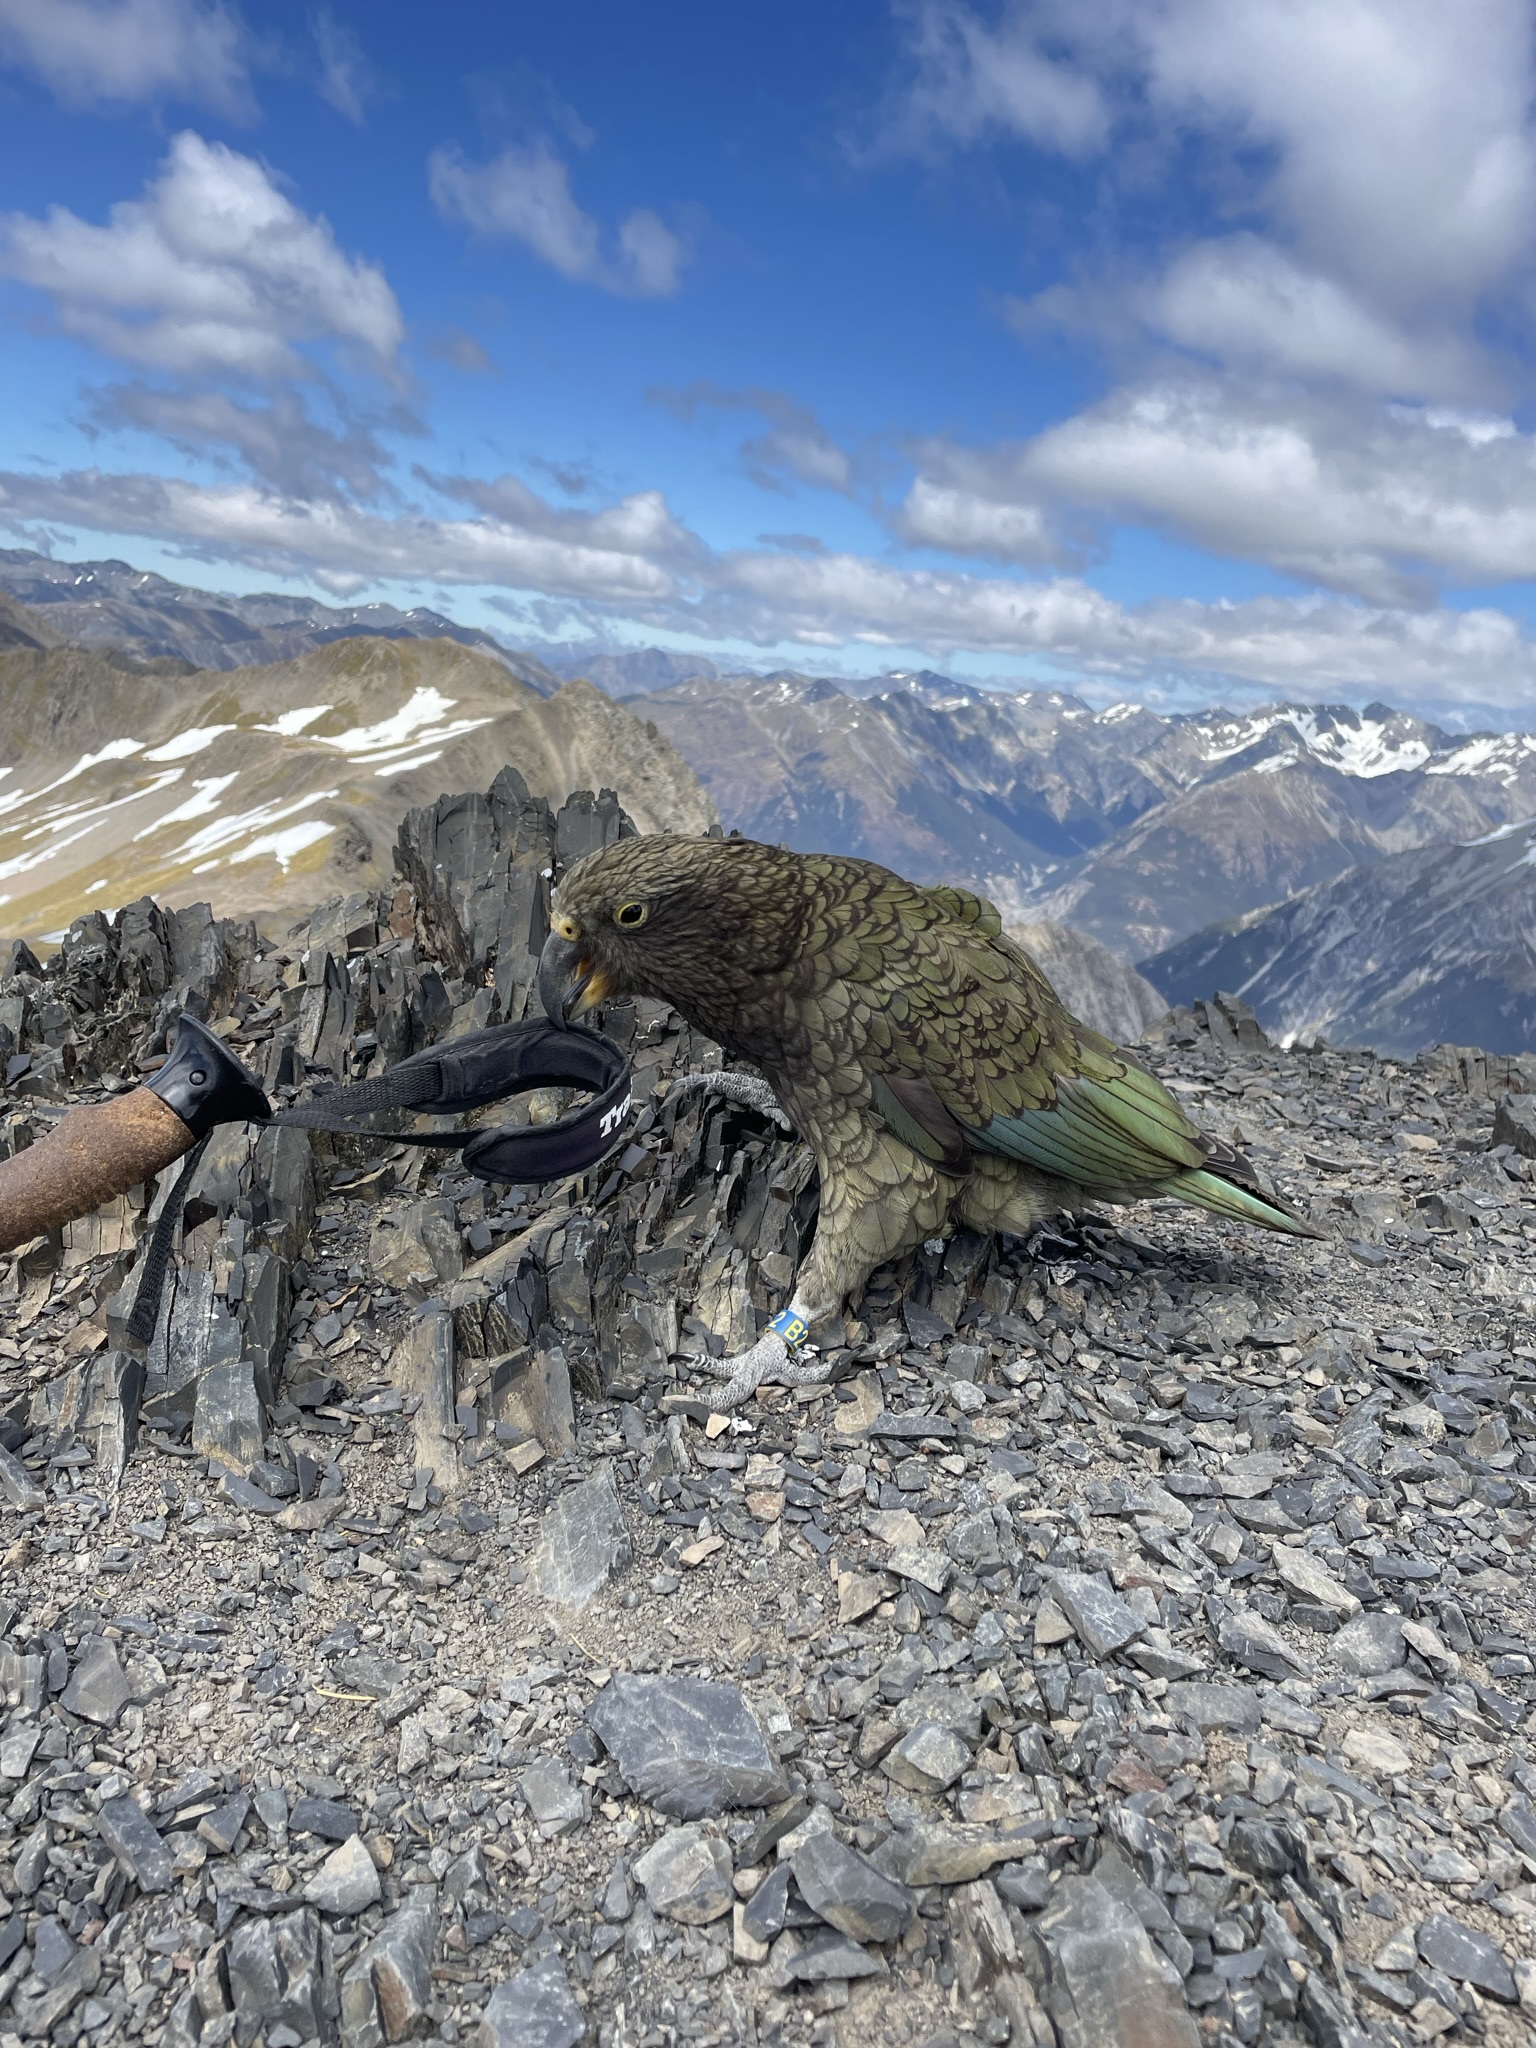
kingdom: Animalia
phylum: Chordata
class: Aves
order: Psittaciformes
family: Psittacidae
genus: Nestor
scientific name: Nestor notabilis
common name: Kea
